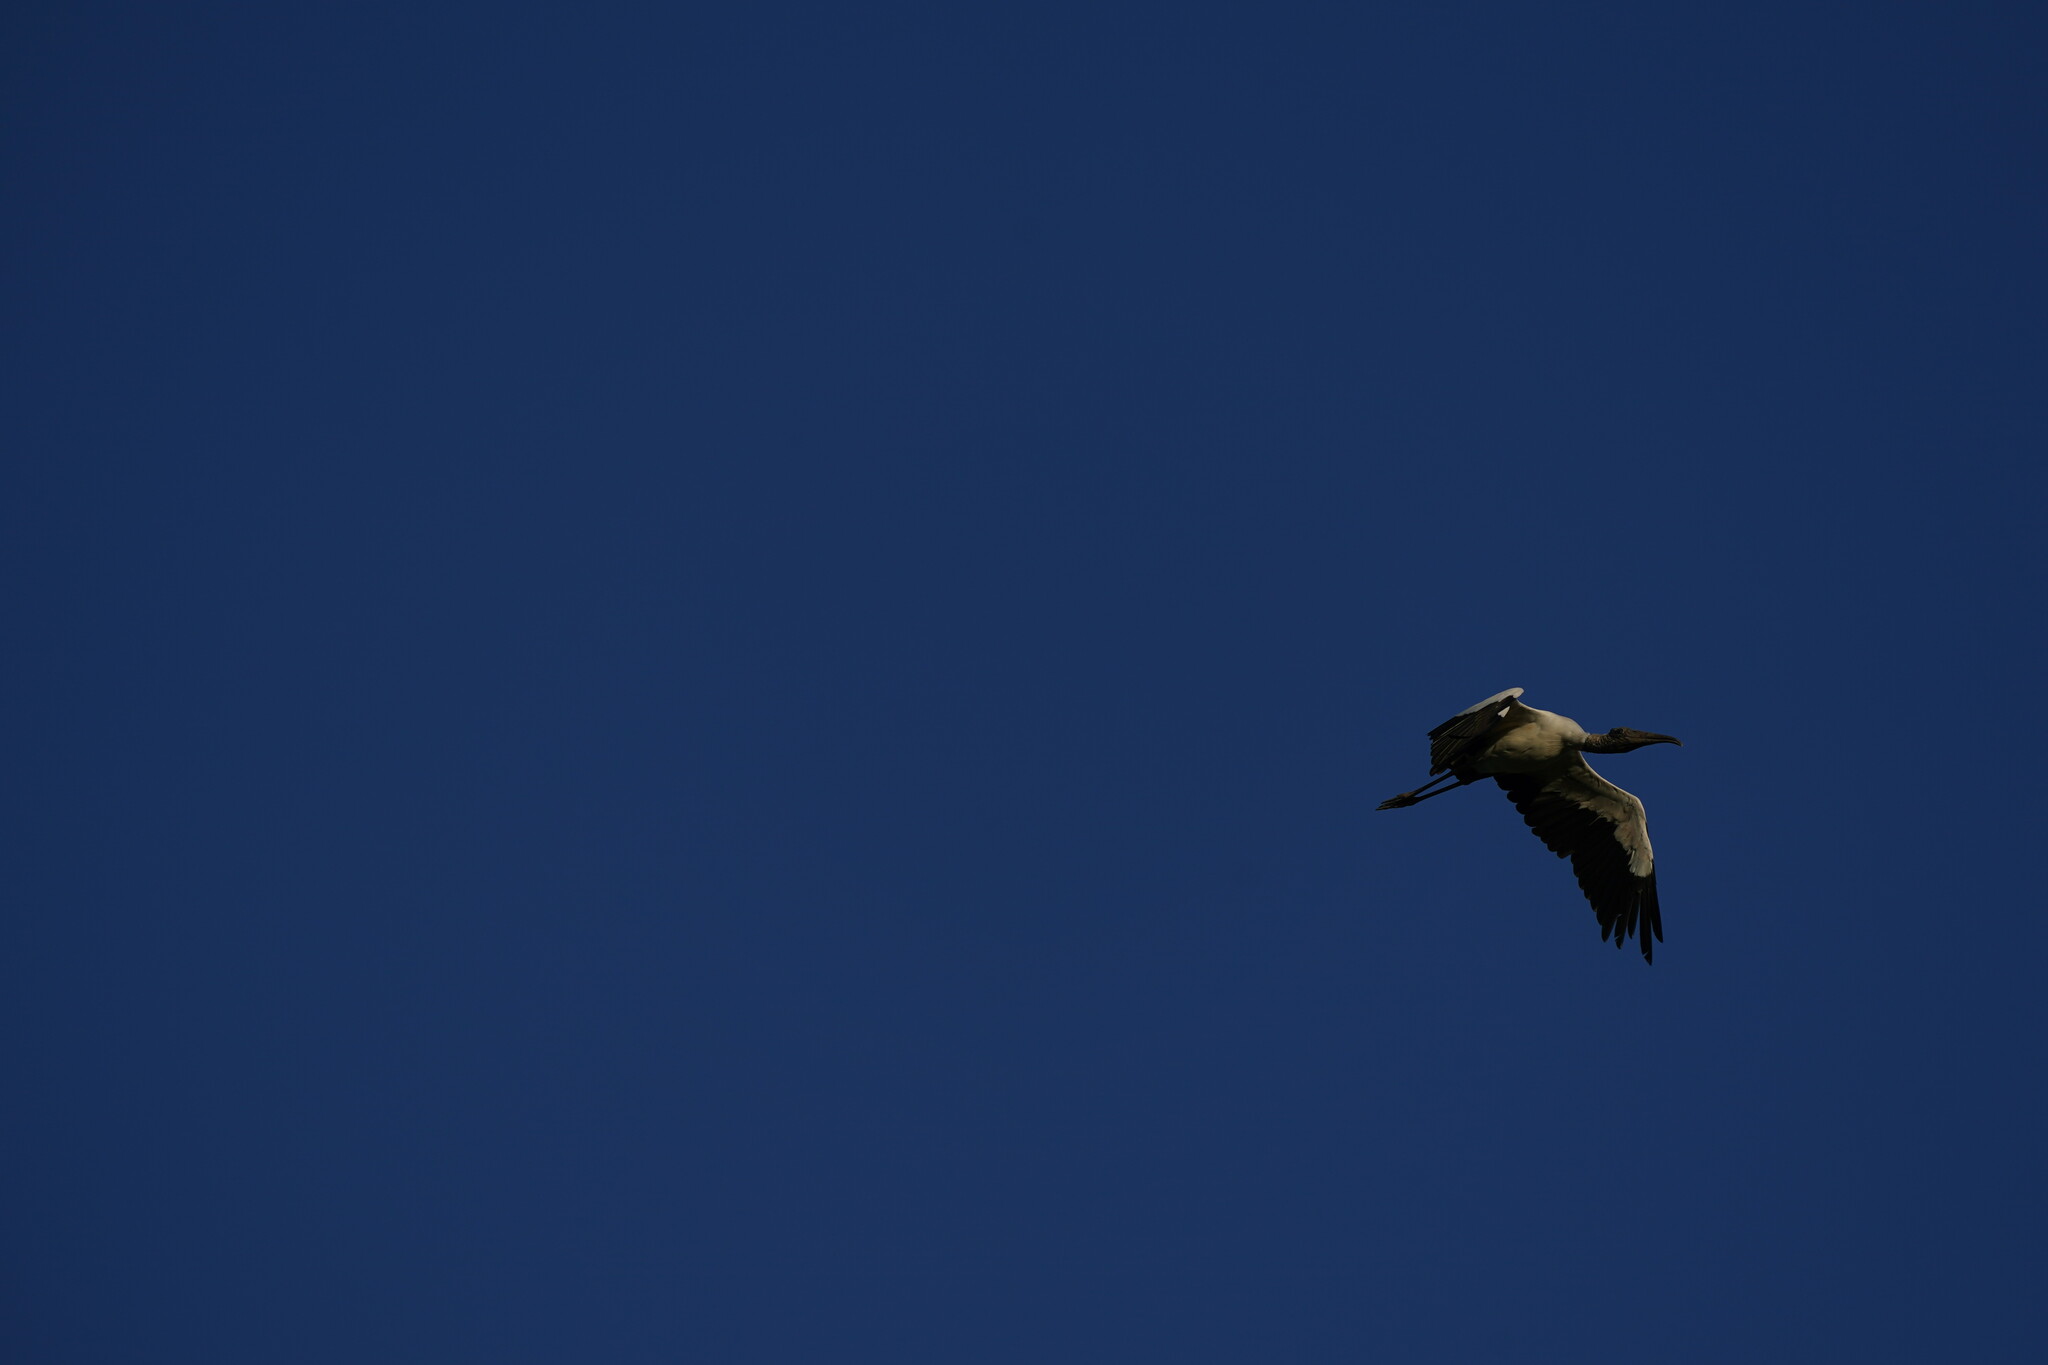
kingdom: Animalia
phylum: Chordata
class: Aves
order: Ciconiiformes
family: Ciconiidae
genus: Mycteria
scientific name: Mycteria americana
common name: Wood stork
